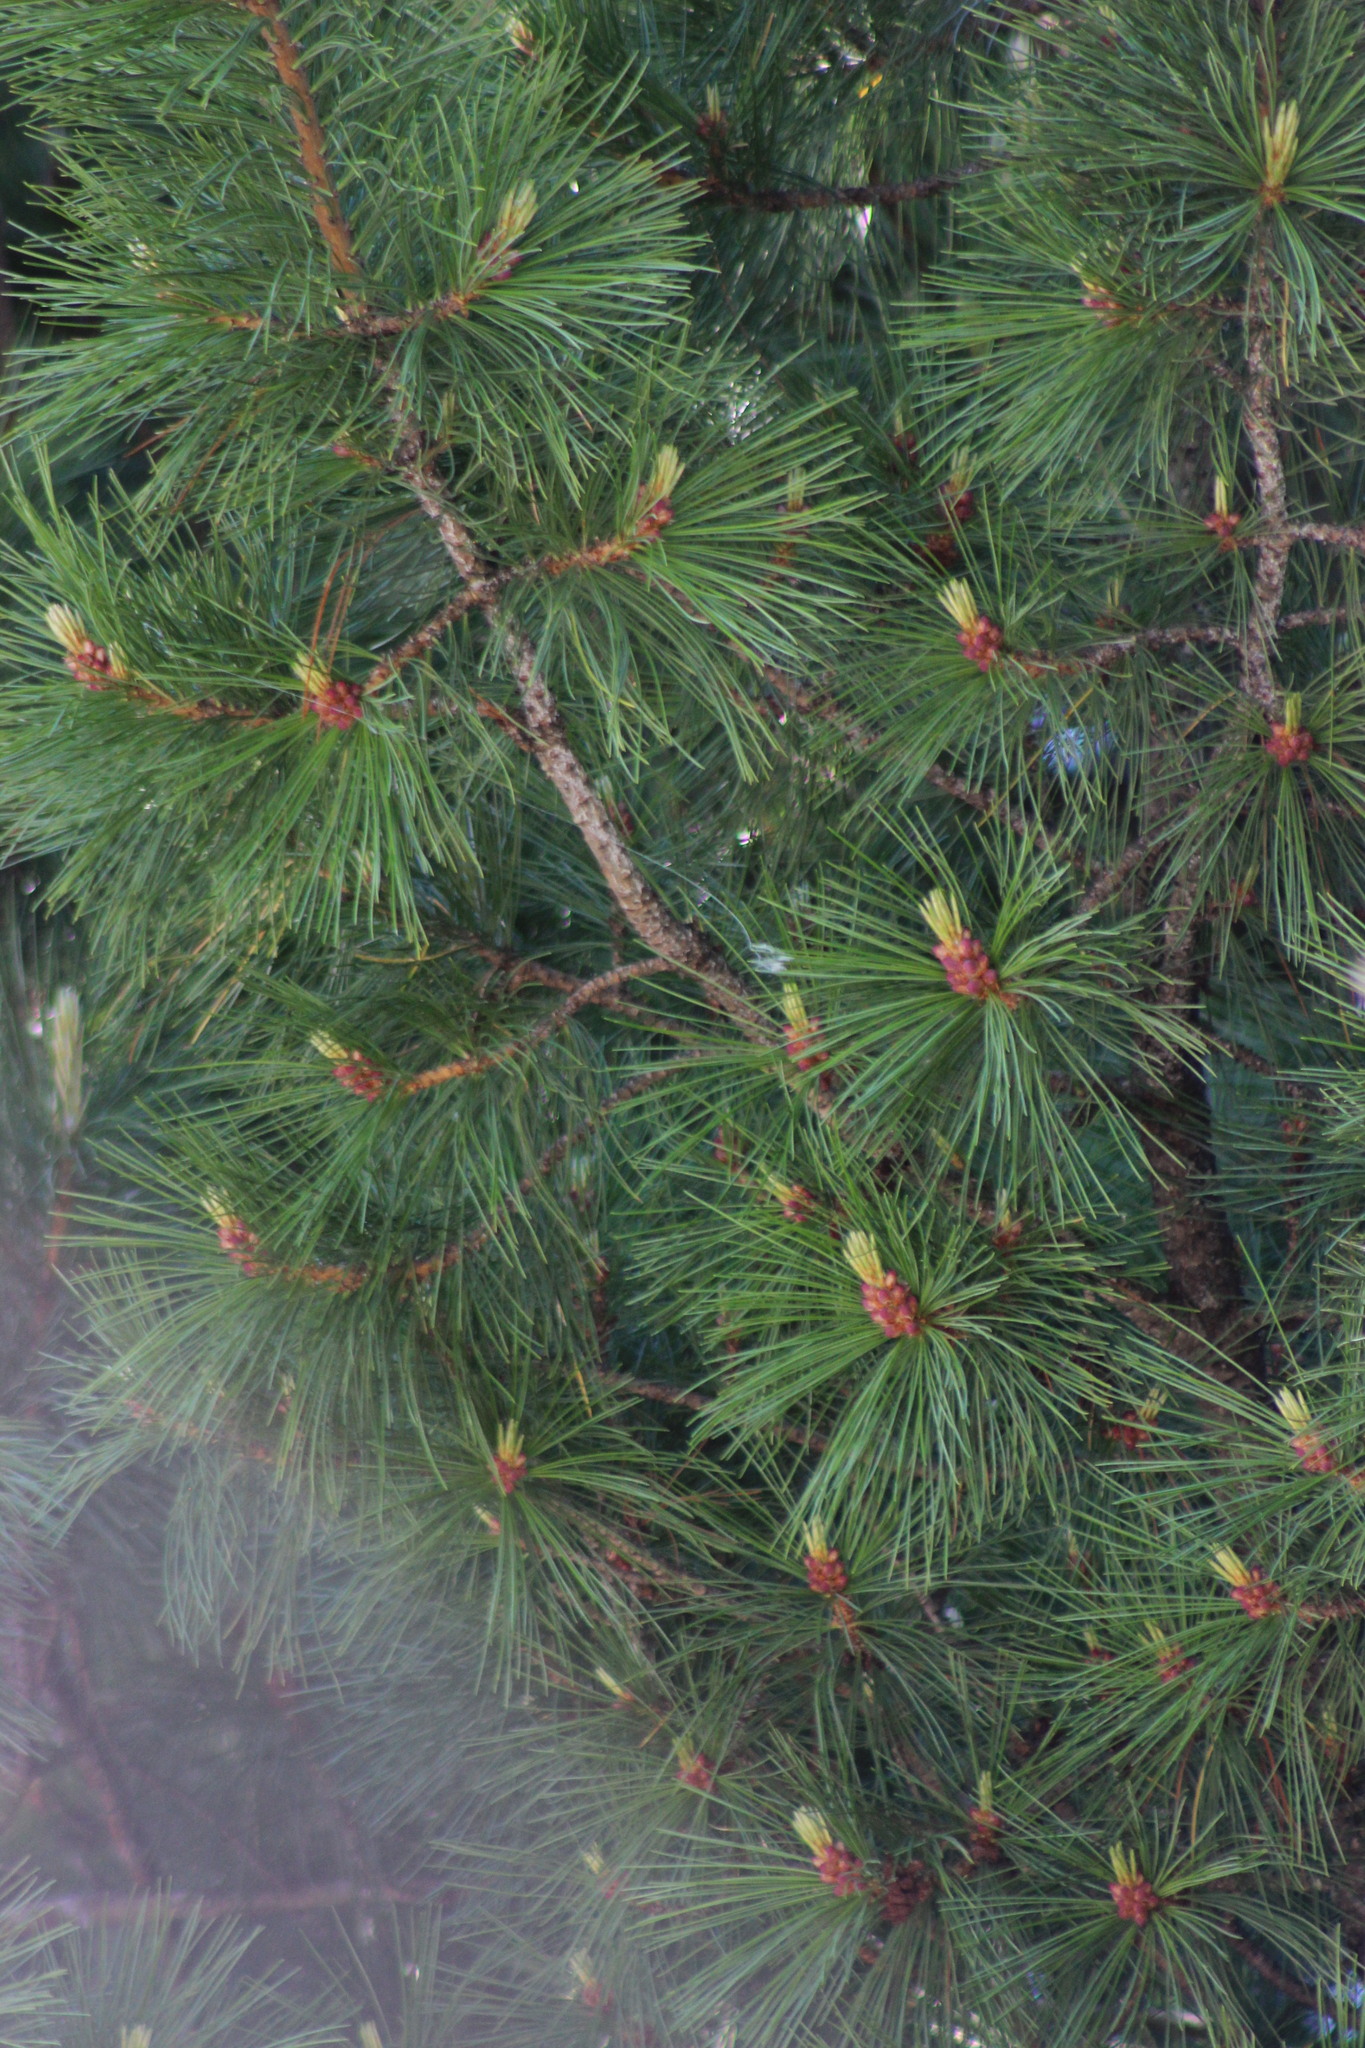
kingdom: Plantae
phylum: Tracheophyta
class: Pinopsida
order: Pinales
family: Pinaceae
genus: Pinus
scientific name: Pinus sibirica
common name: Siberian pine
